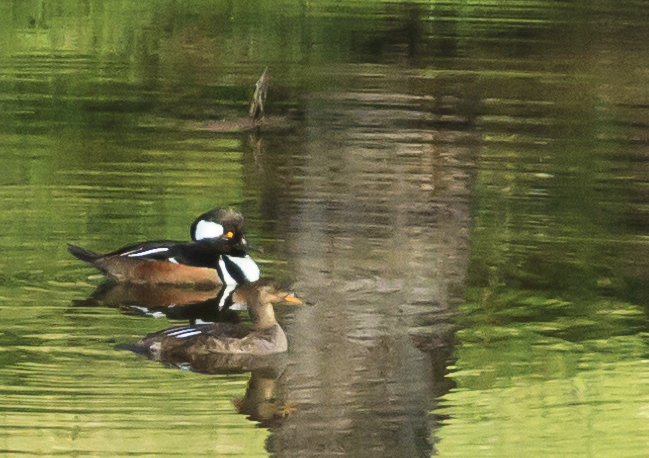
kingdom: Animalia
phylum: Chordata
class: Aves
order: Anseriformes
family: Anatidae
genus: Lophodytes
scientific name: Lophodytes cucullatus
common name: Hooded merganser
